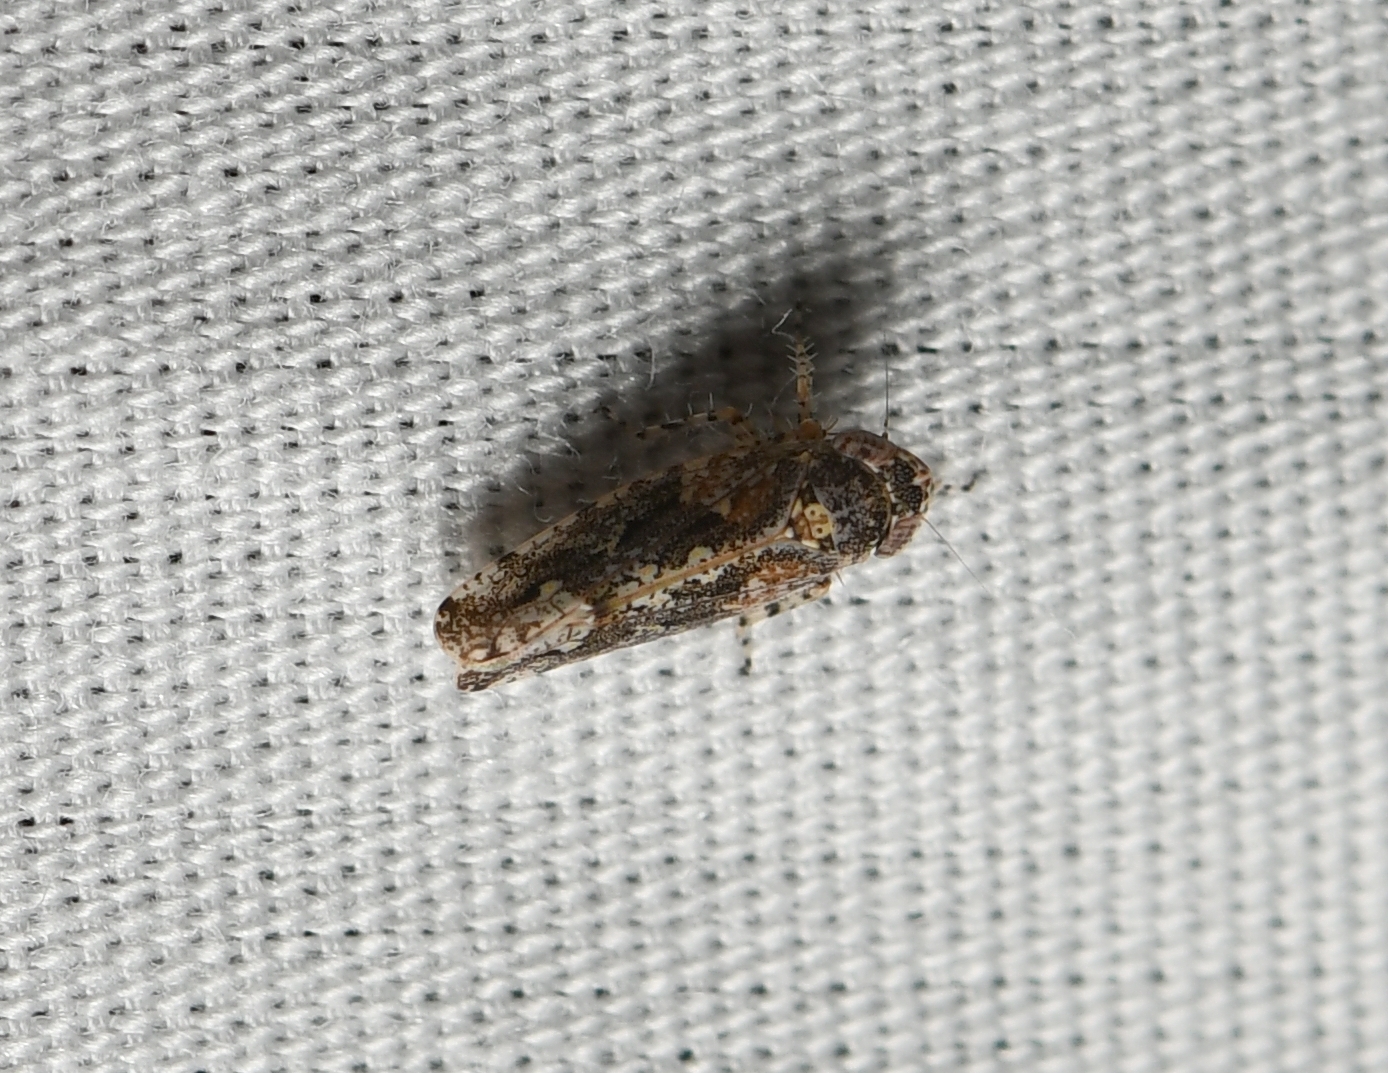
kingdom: Animalia
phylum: Arthropoda
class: Insecta
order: Hemiptera
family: Cicadellidae
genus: Dixianus
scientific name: Dixianus utahnus
